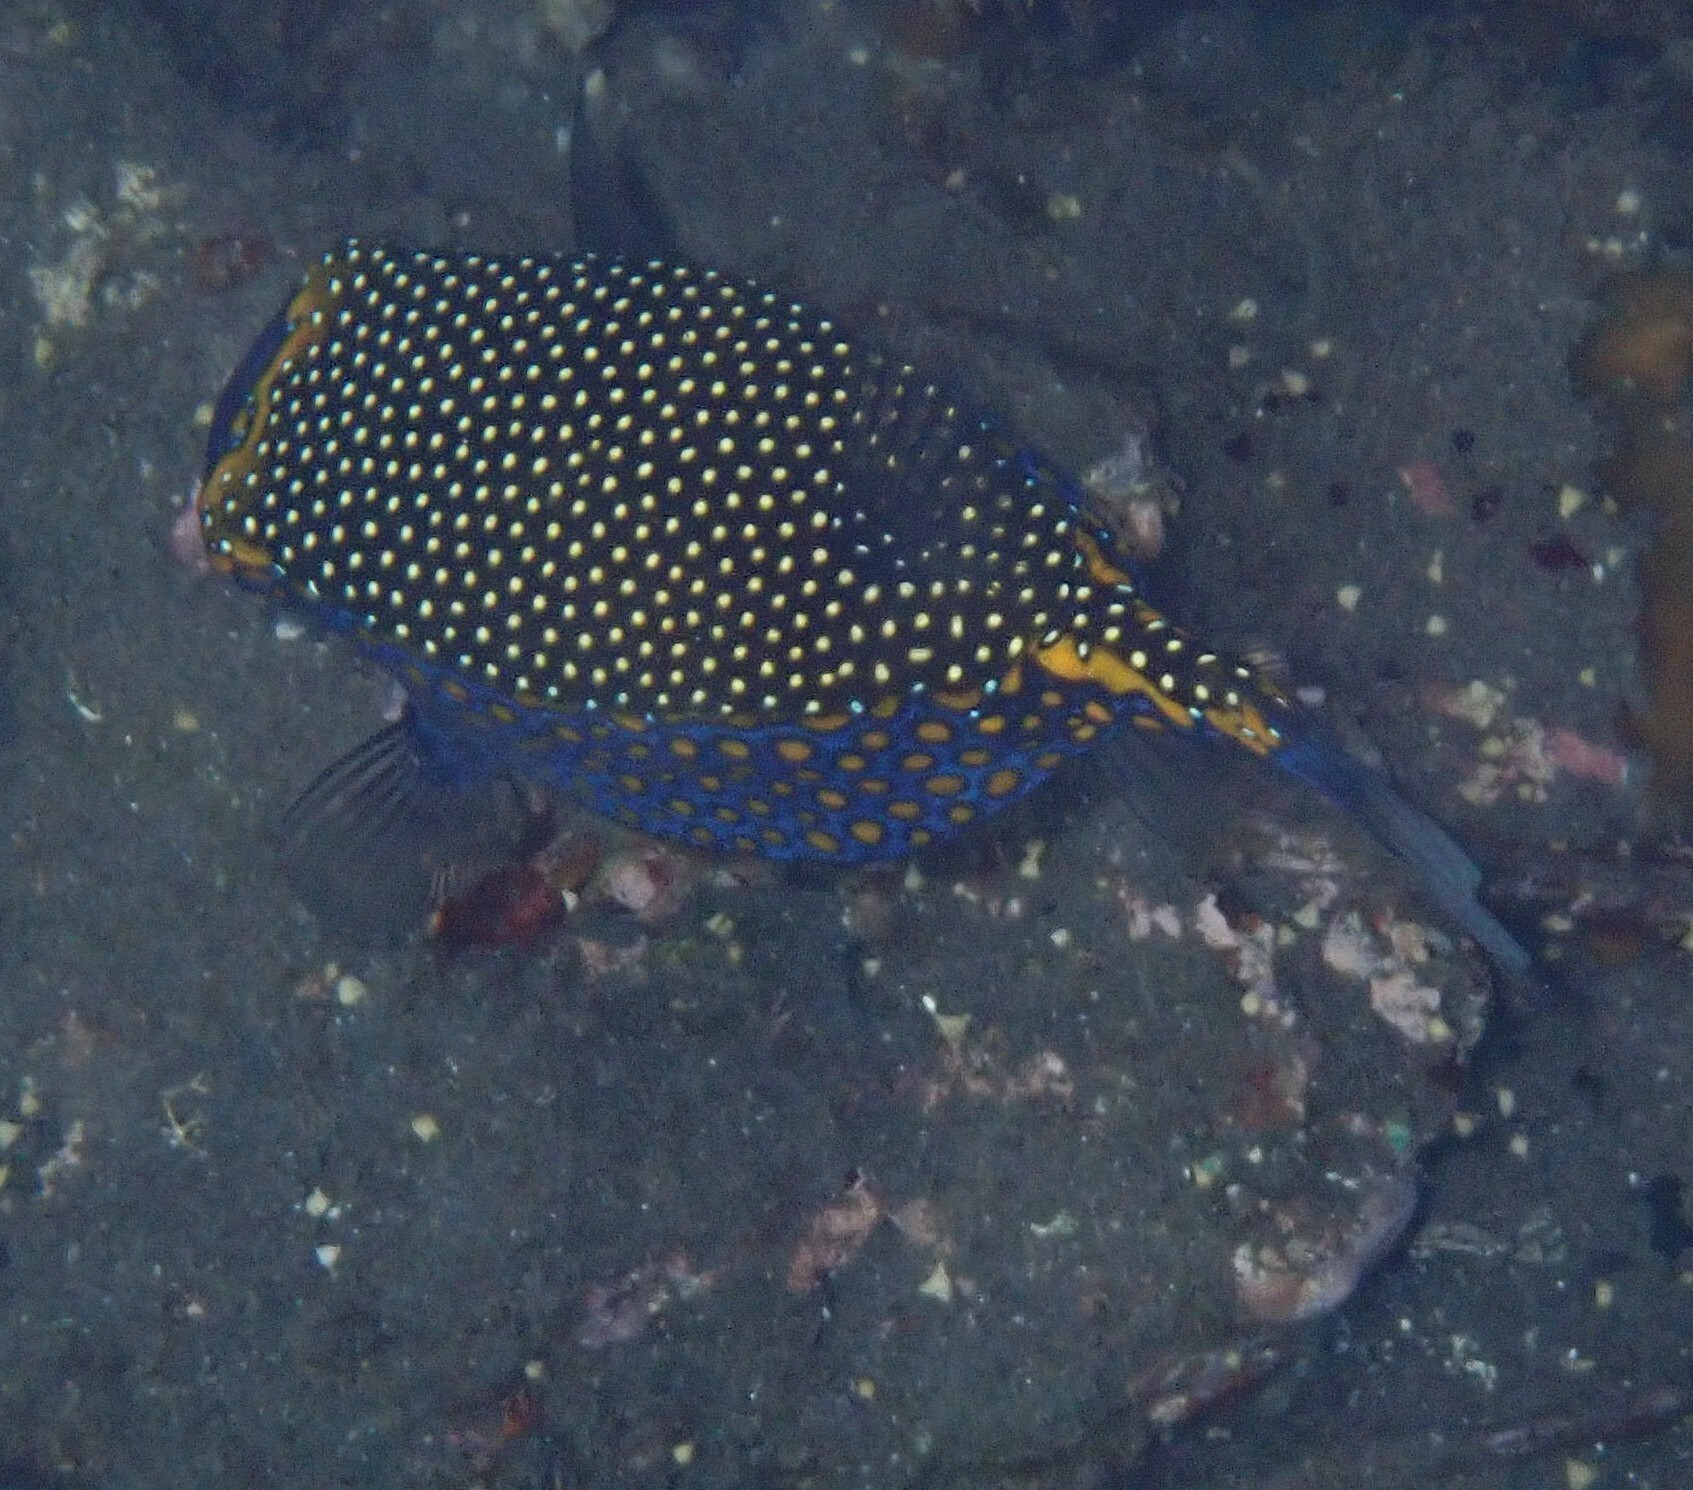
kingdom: Animalia
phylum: Chordata
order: Tetraodontiformes
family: Ostraciidae
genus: Ostracion
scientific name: Ostracion meleagris
